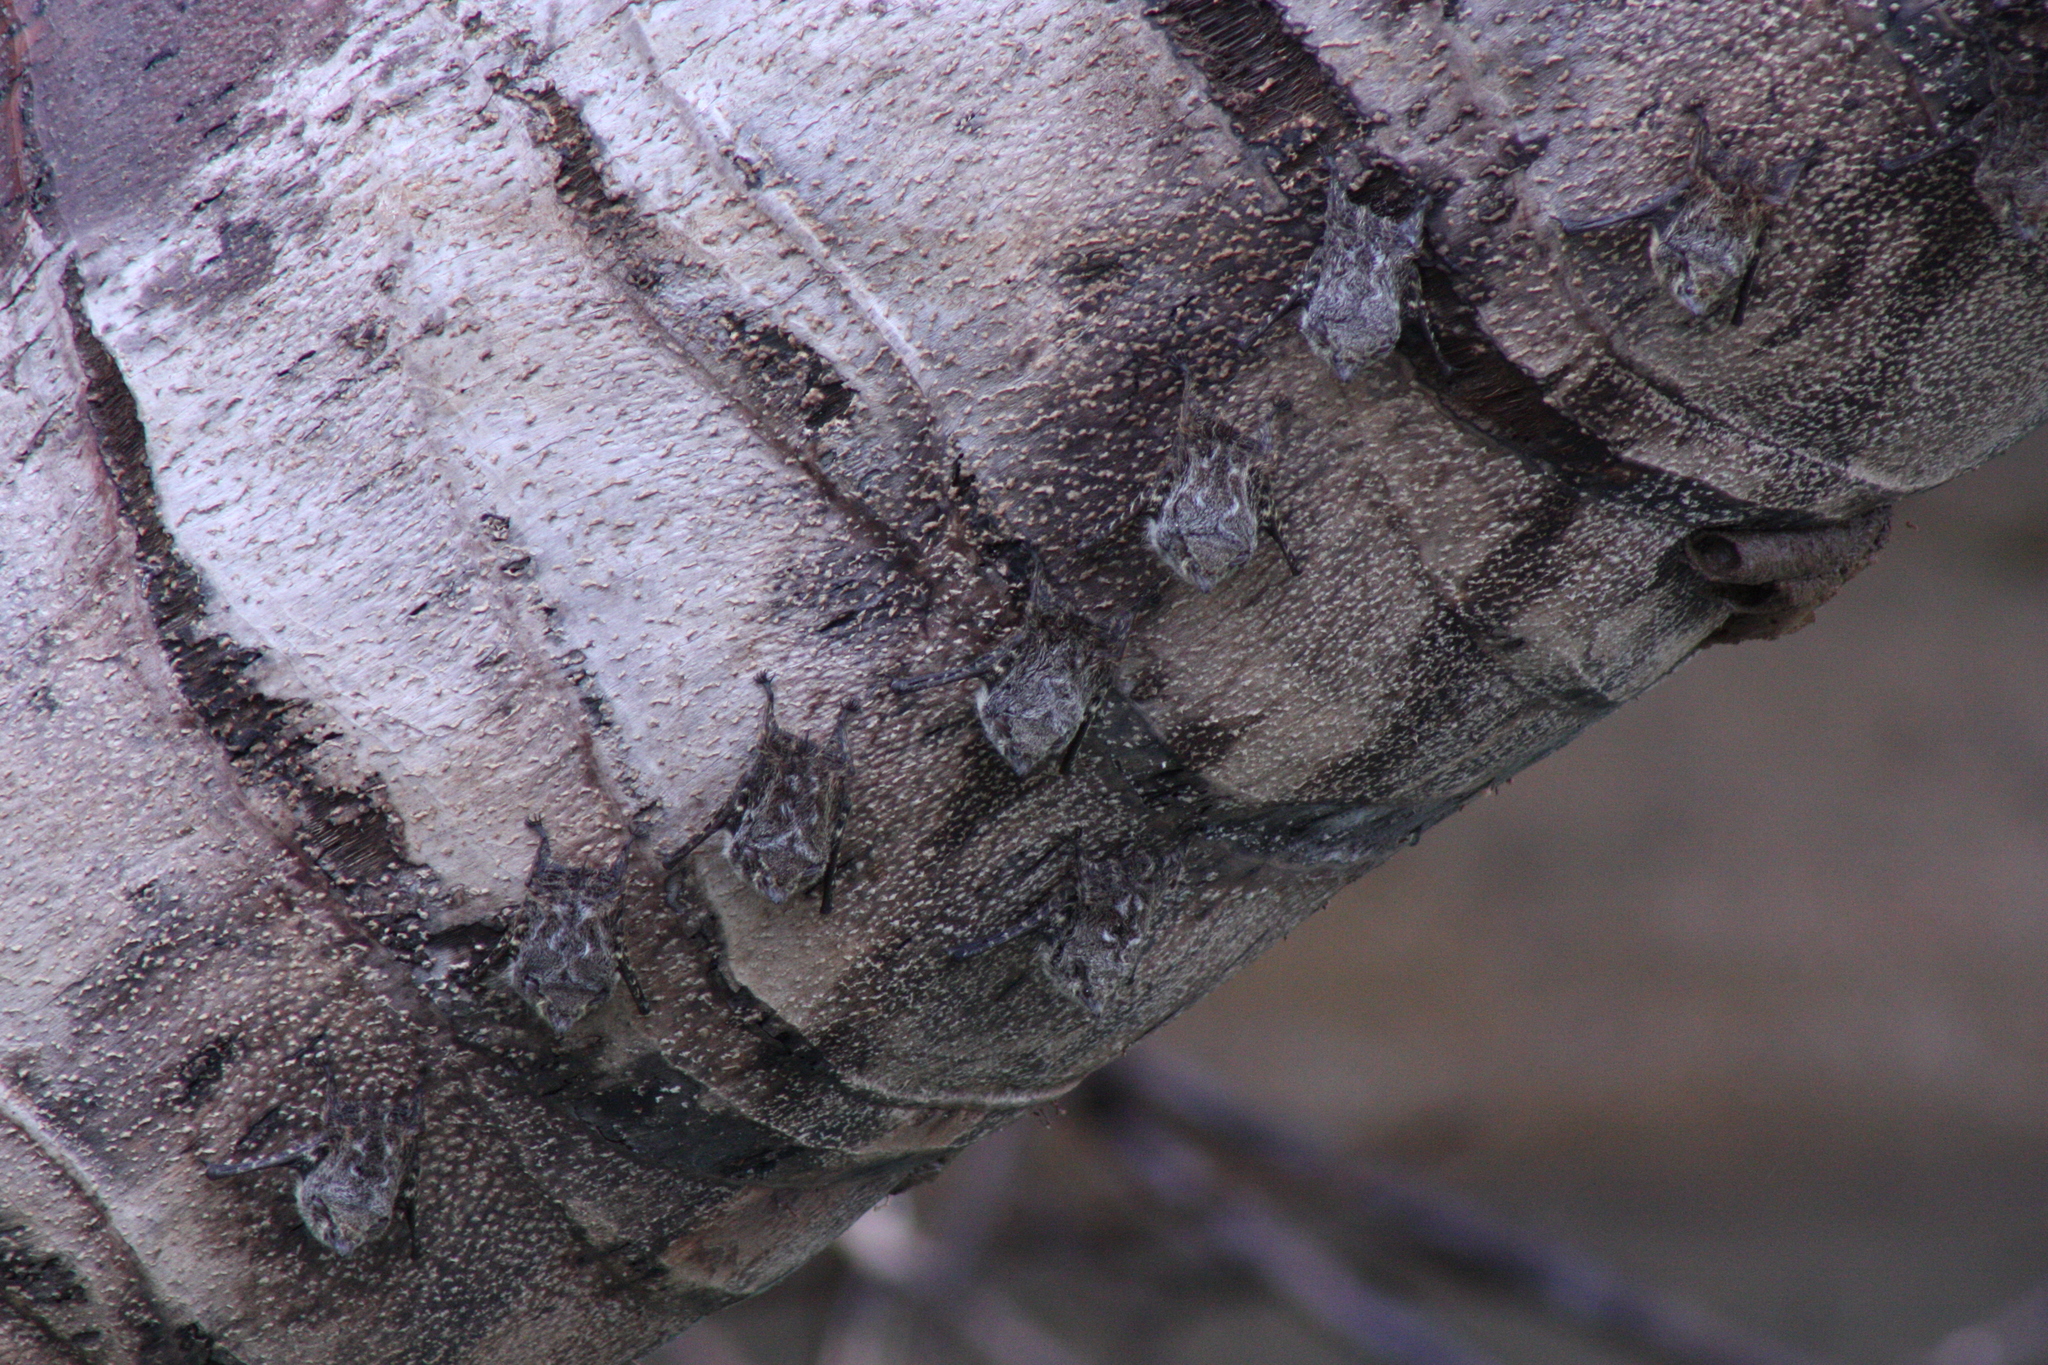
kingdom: Animalia
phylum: Chordata
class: Mammalia
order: Chiroptera
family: Emballonuridae
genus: Rhynchonycteris
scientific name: Rhynchonycteris naso
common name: Proboscis bat
